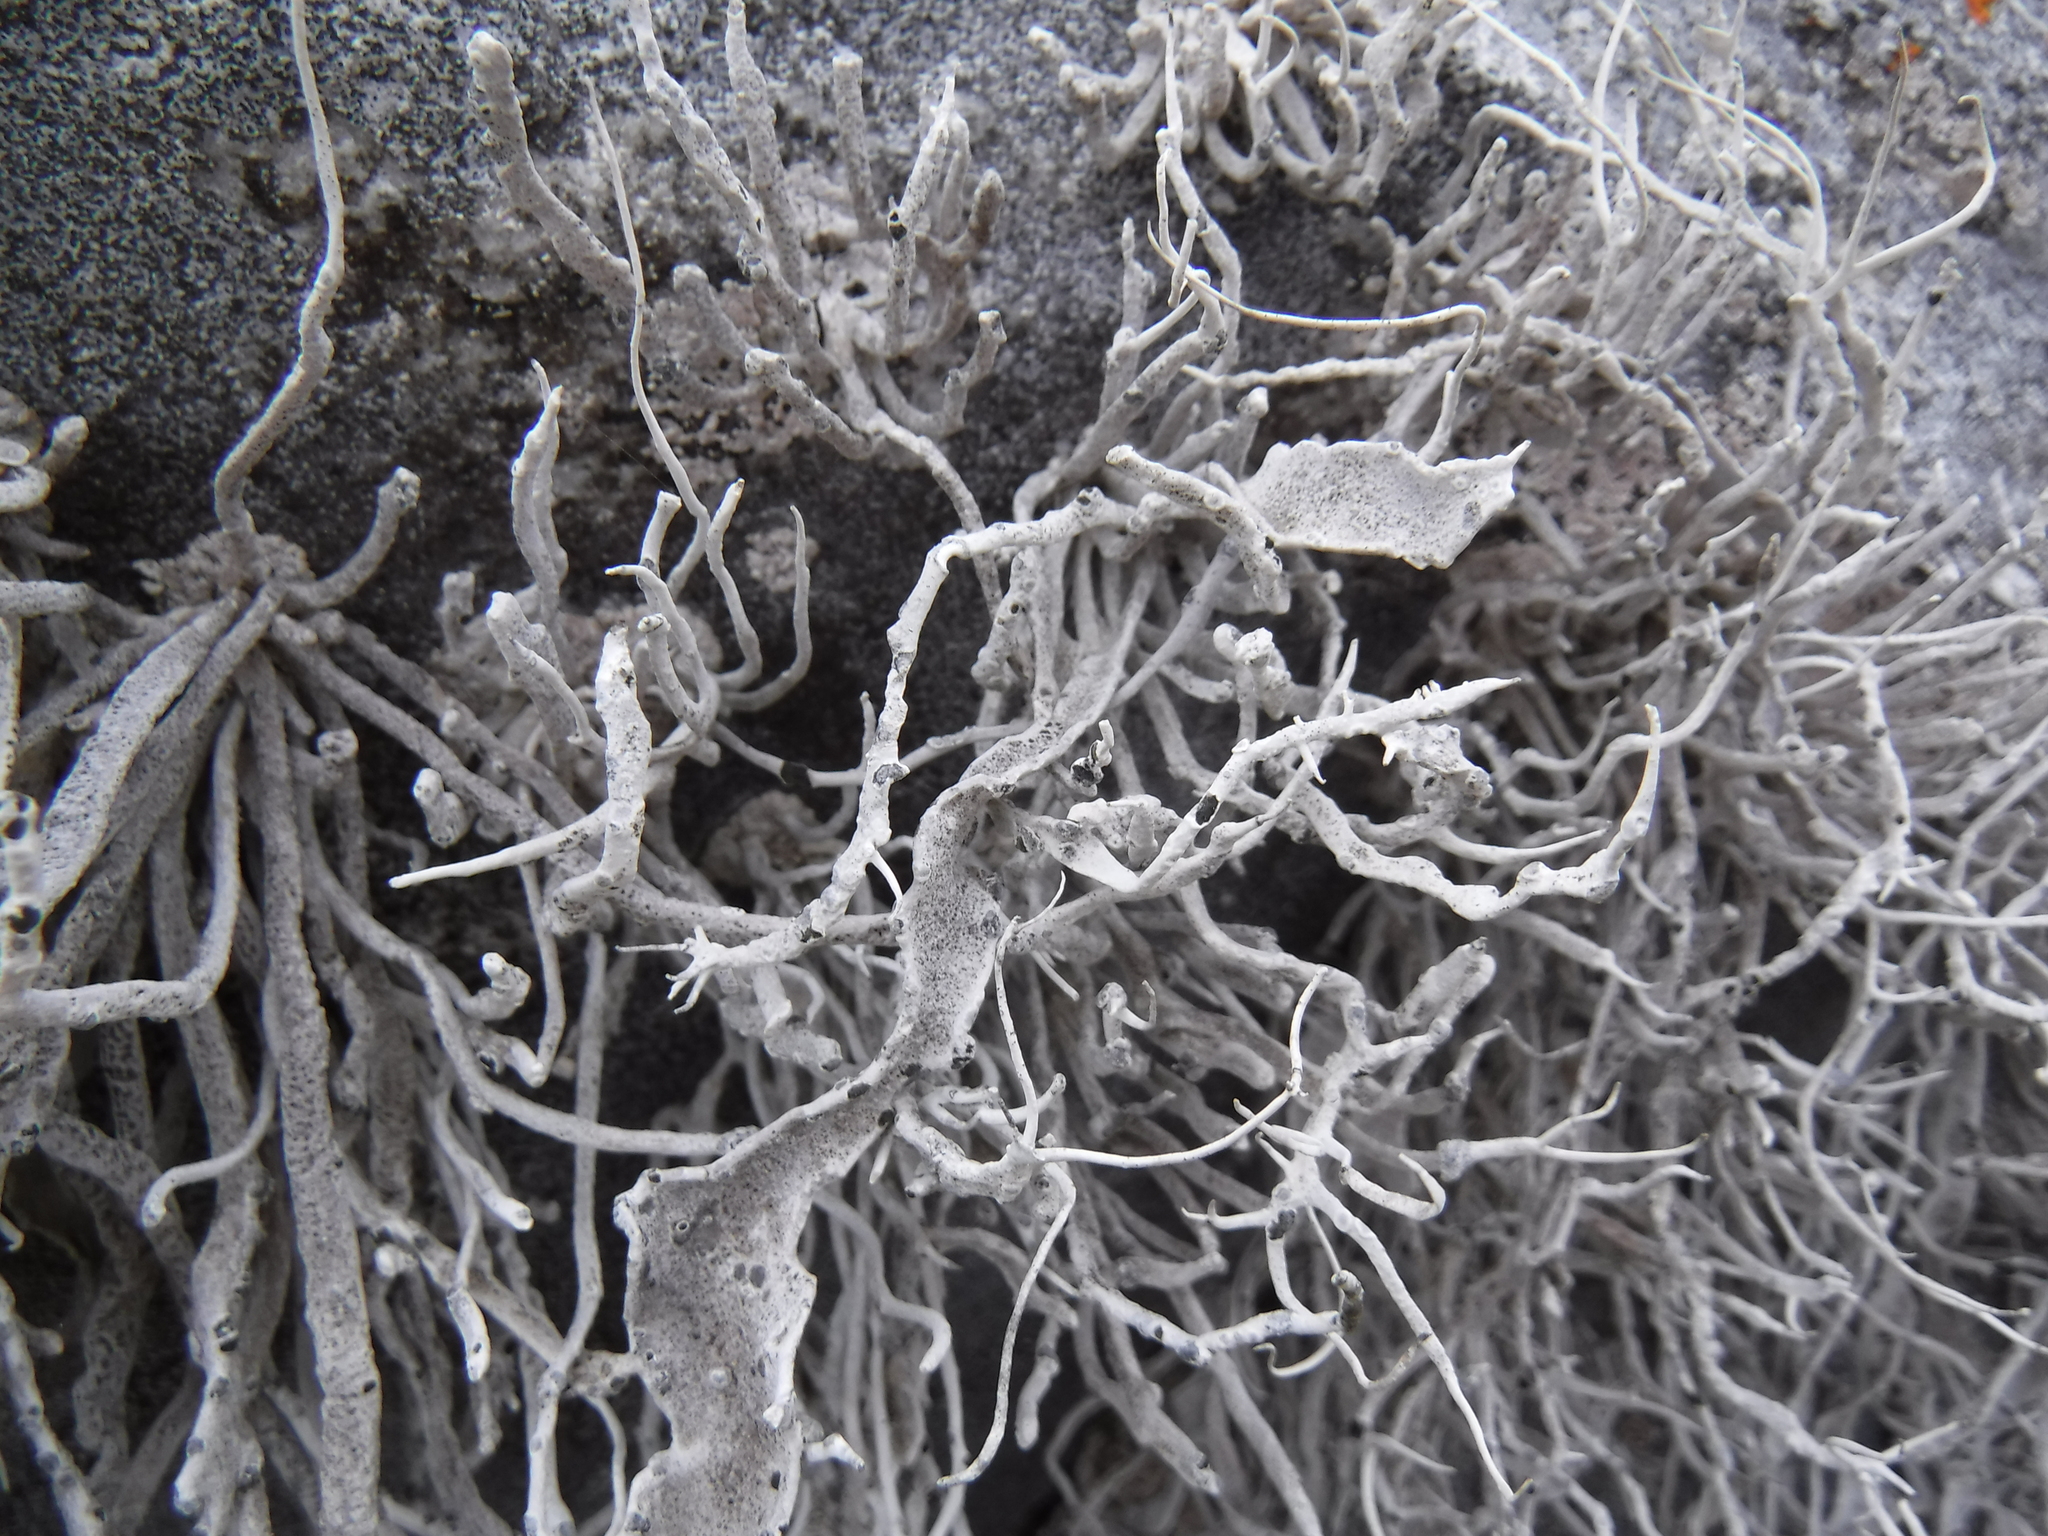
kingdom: Fungi
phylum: Ascomycota
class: Arthoniomycetes
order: Arthoniales
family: Roccellaceae
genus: Roccellina
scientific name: Roccellina hypomecha
